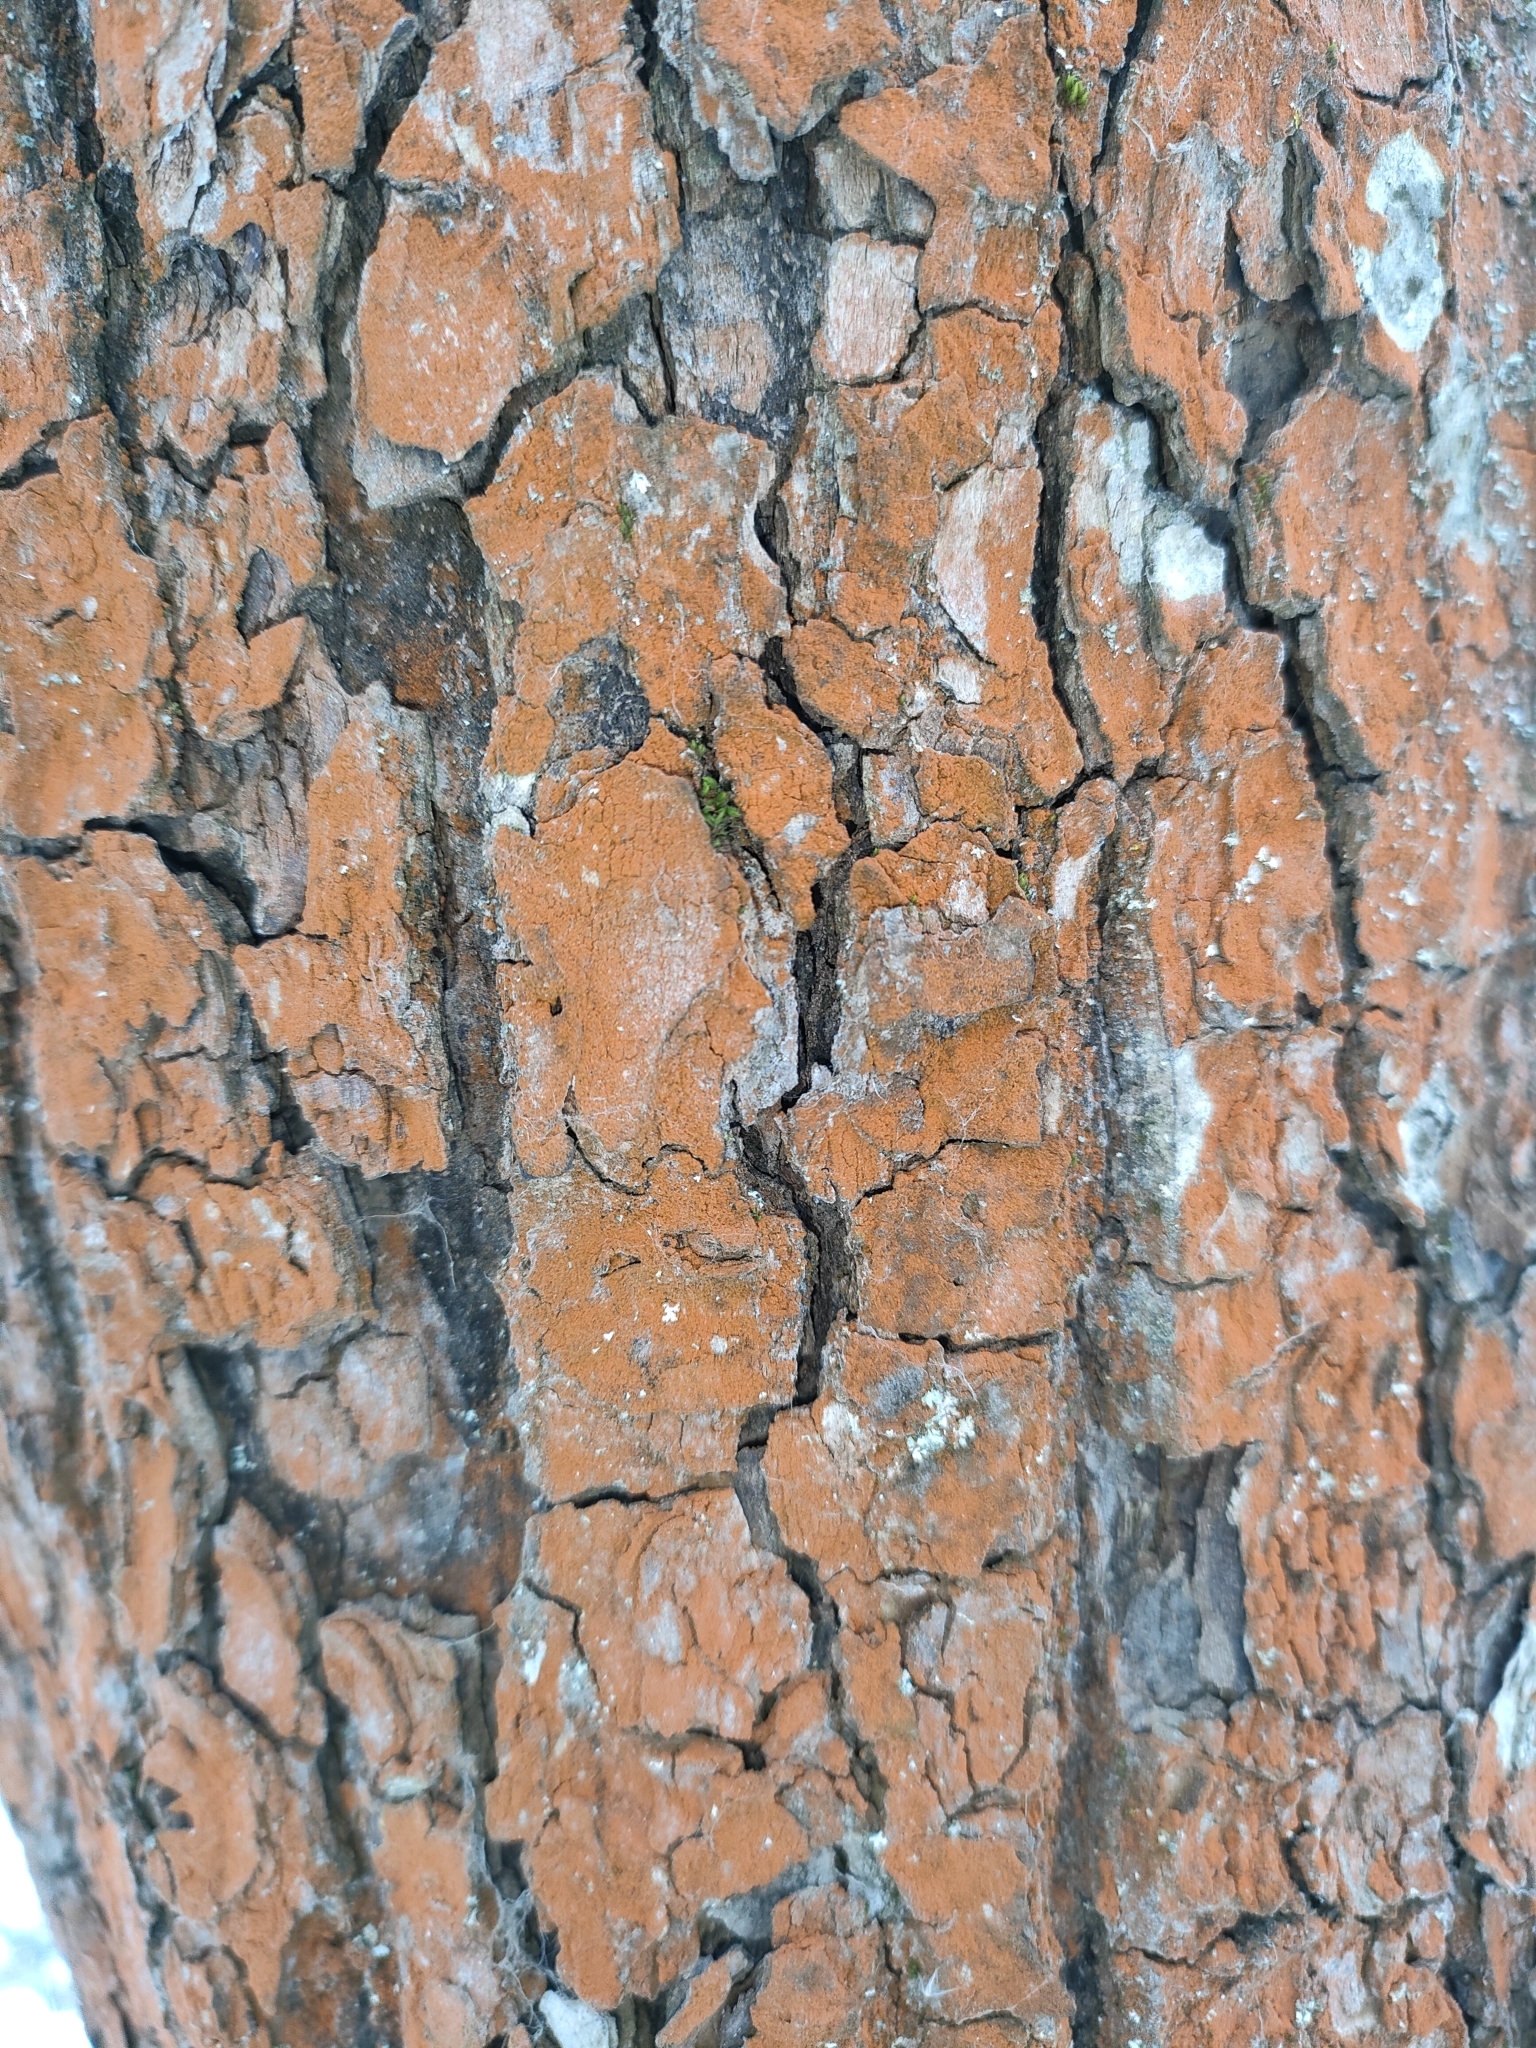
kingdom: Plantae
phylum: Chlorophyta
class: Ulvophyceae
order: Trentepohliales
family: Trentepohliaceae
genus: Trentepohlia
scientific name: Trentepohlia
